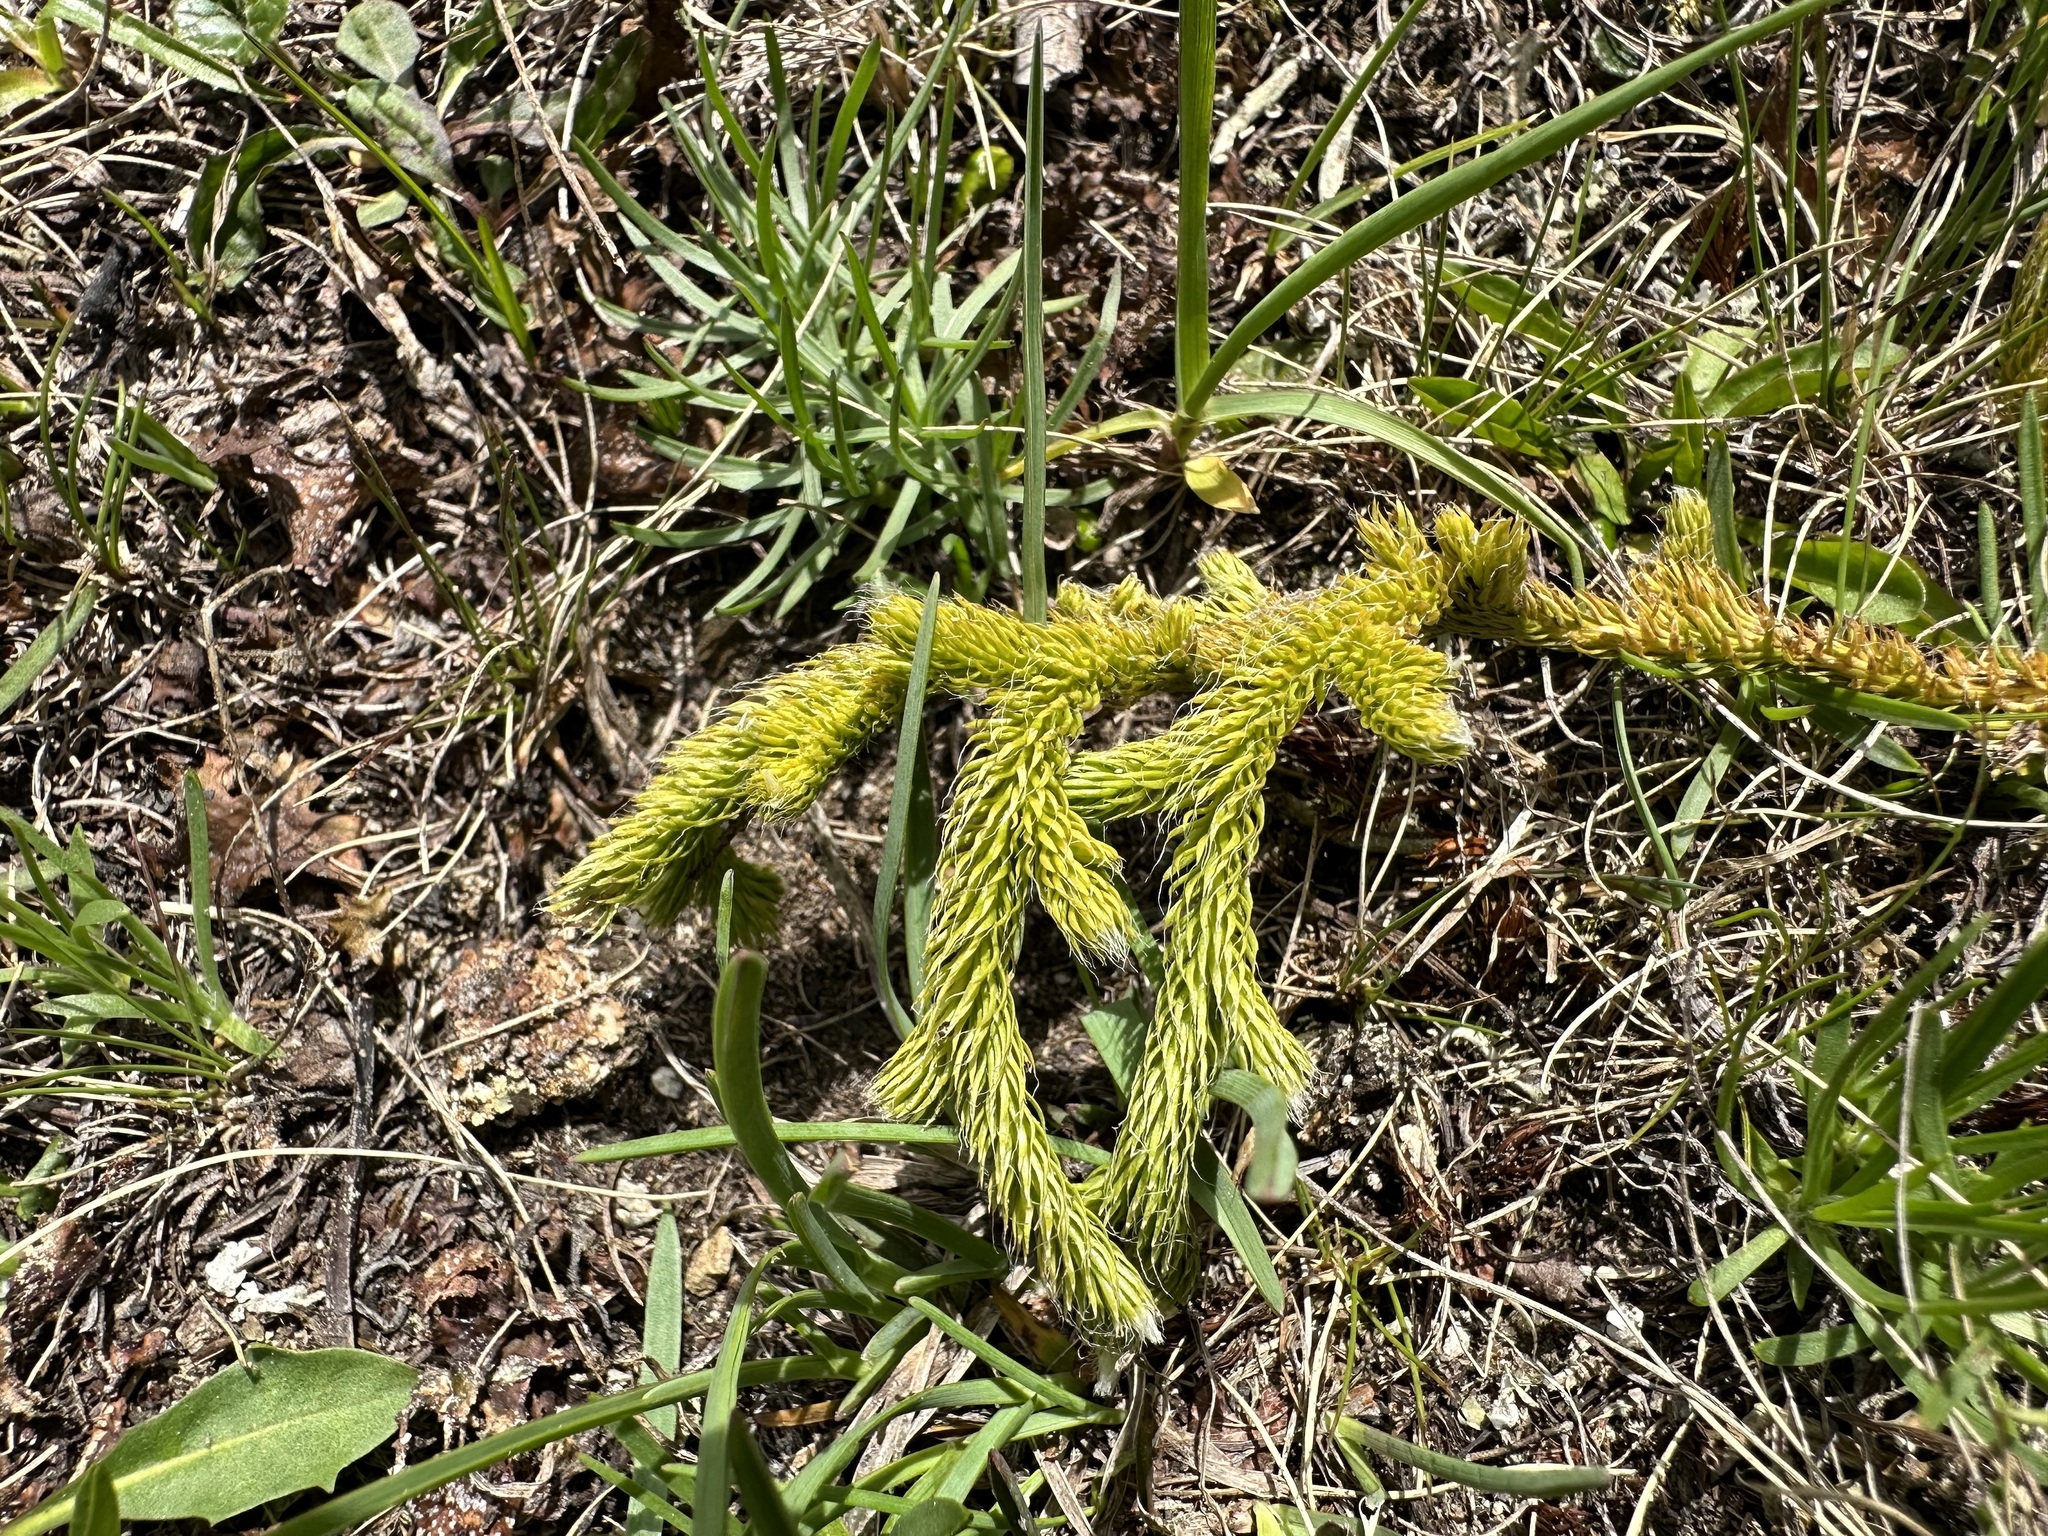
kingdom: Plantae
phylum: Tracheophyta
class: Lycopodiopsida
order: Lycopodiales
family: Lycopodiaceae
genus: Lycopodium
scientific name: Lycopodium clavatum
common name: Stag's-horn clubmoss
